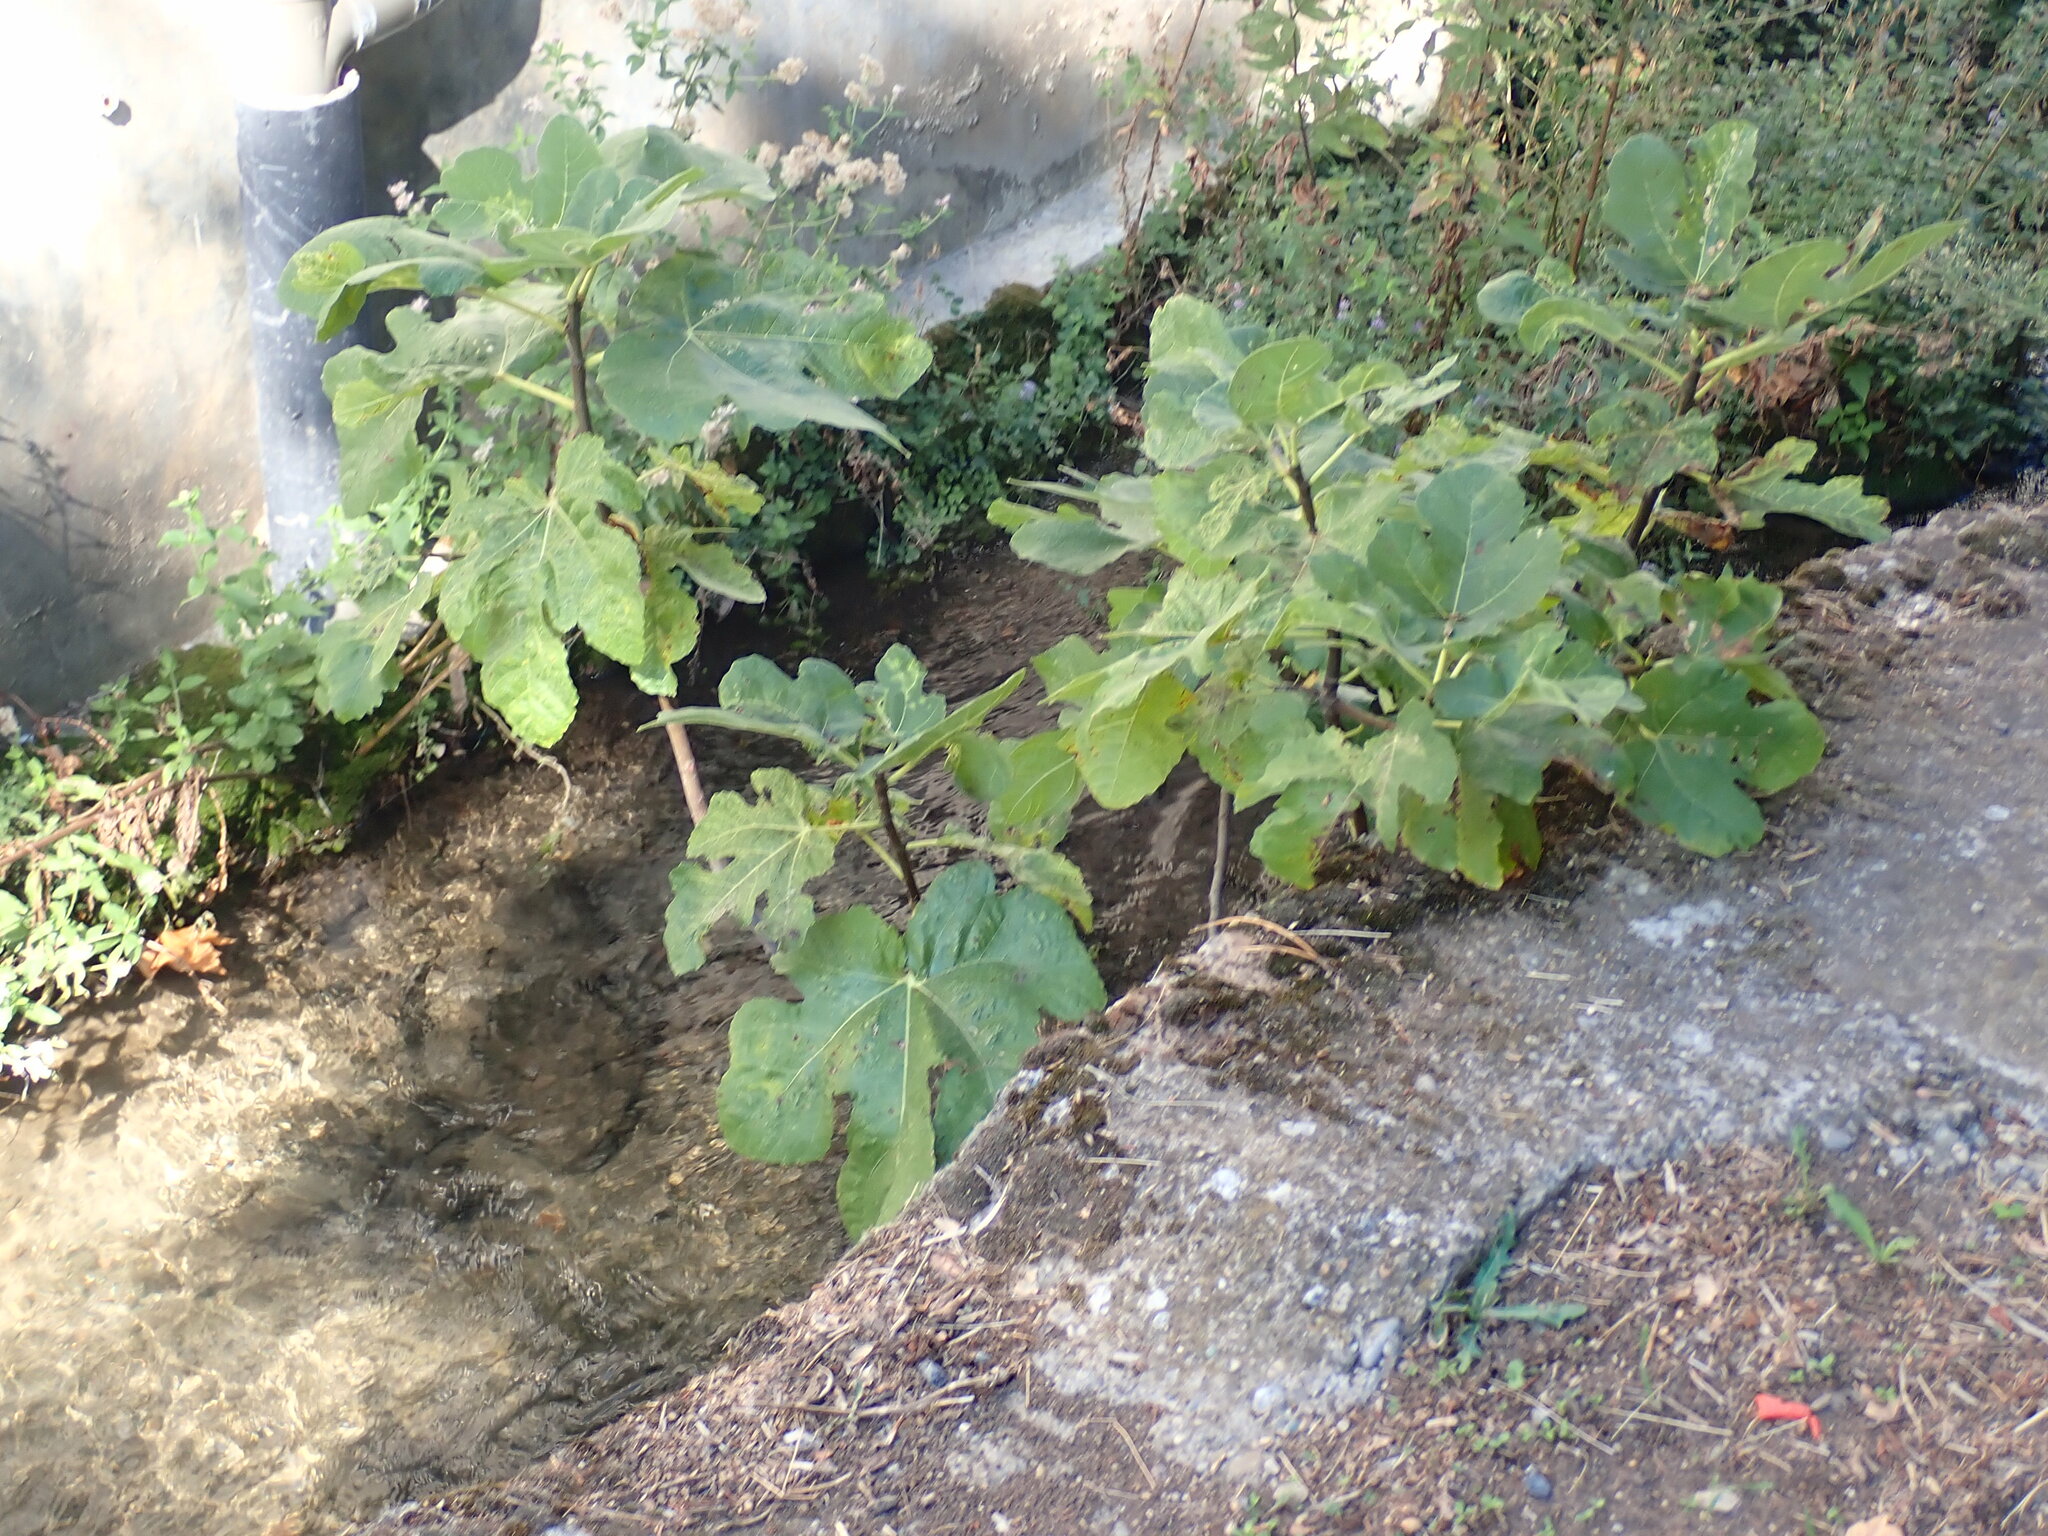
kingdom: Plantae
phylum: Tracheophyta
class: Magnoliopsida
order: Rosales
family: Moraceae
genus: Ficus
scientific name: Ficus carica
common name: Fig
